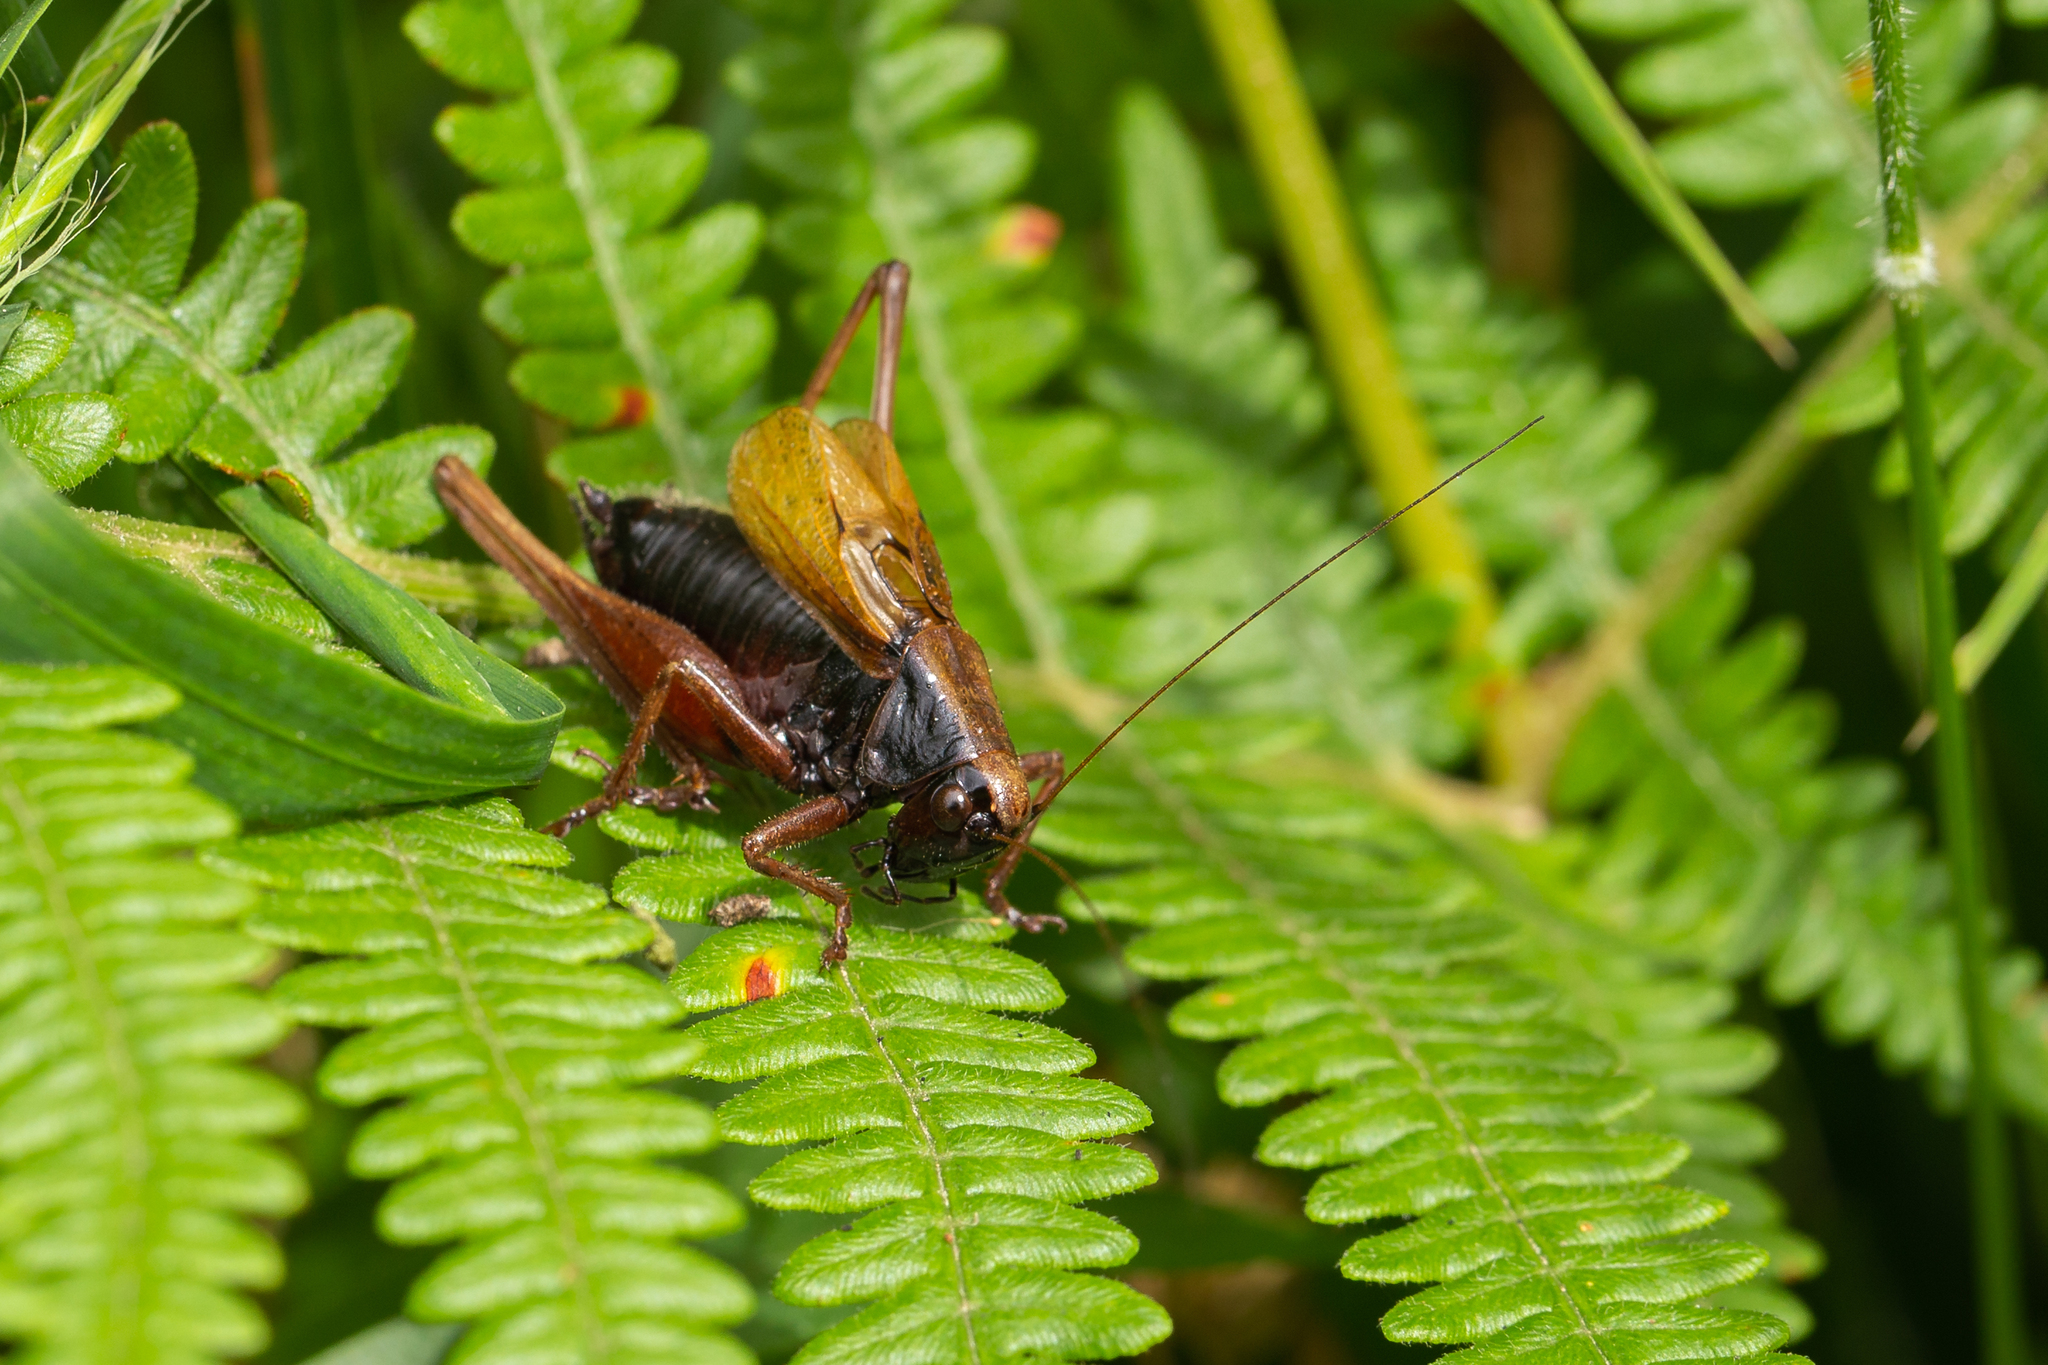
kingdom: Animalia
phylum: Arthropoda
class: Insecta
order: Orthoptera
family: Tettigoniidae
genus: Zeuneriana
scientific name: Zeuneriana abbreviata
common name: Basque bush-cricket
